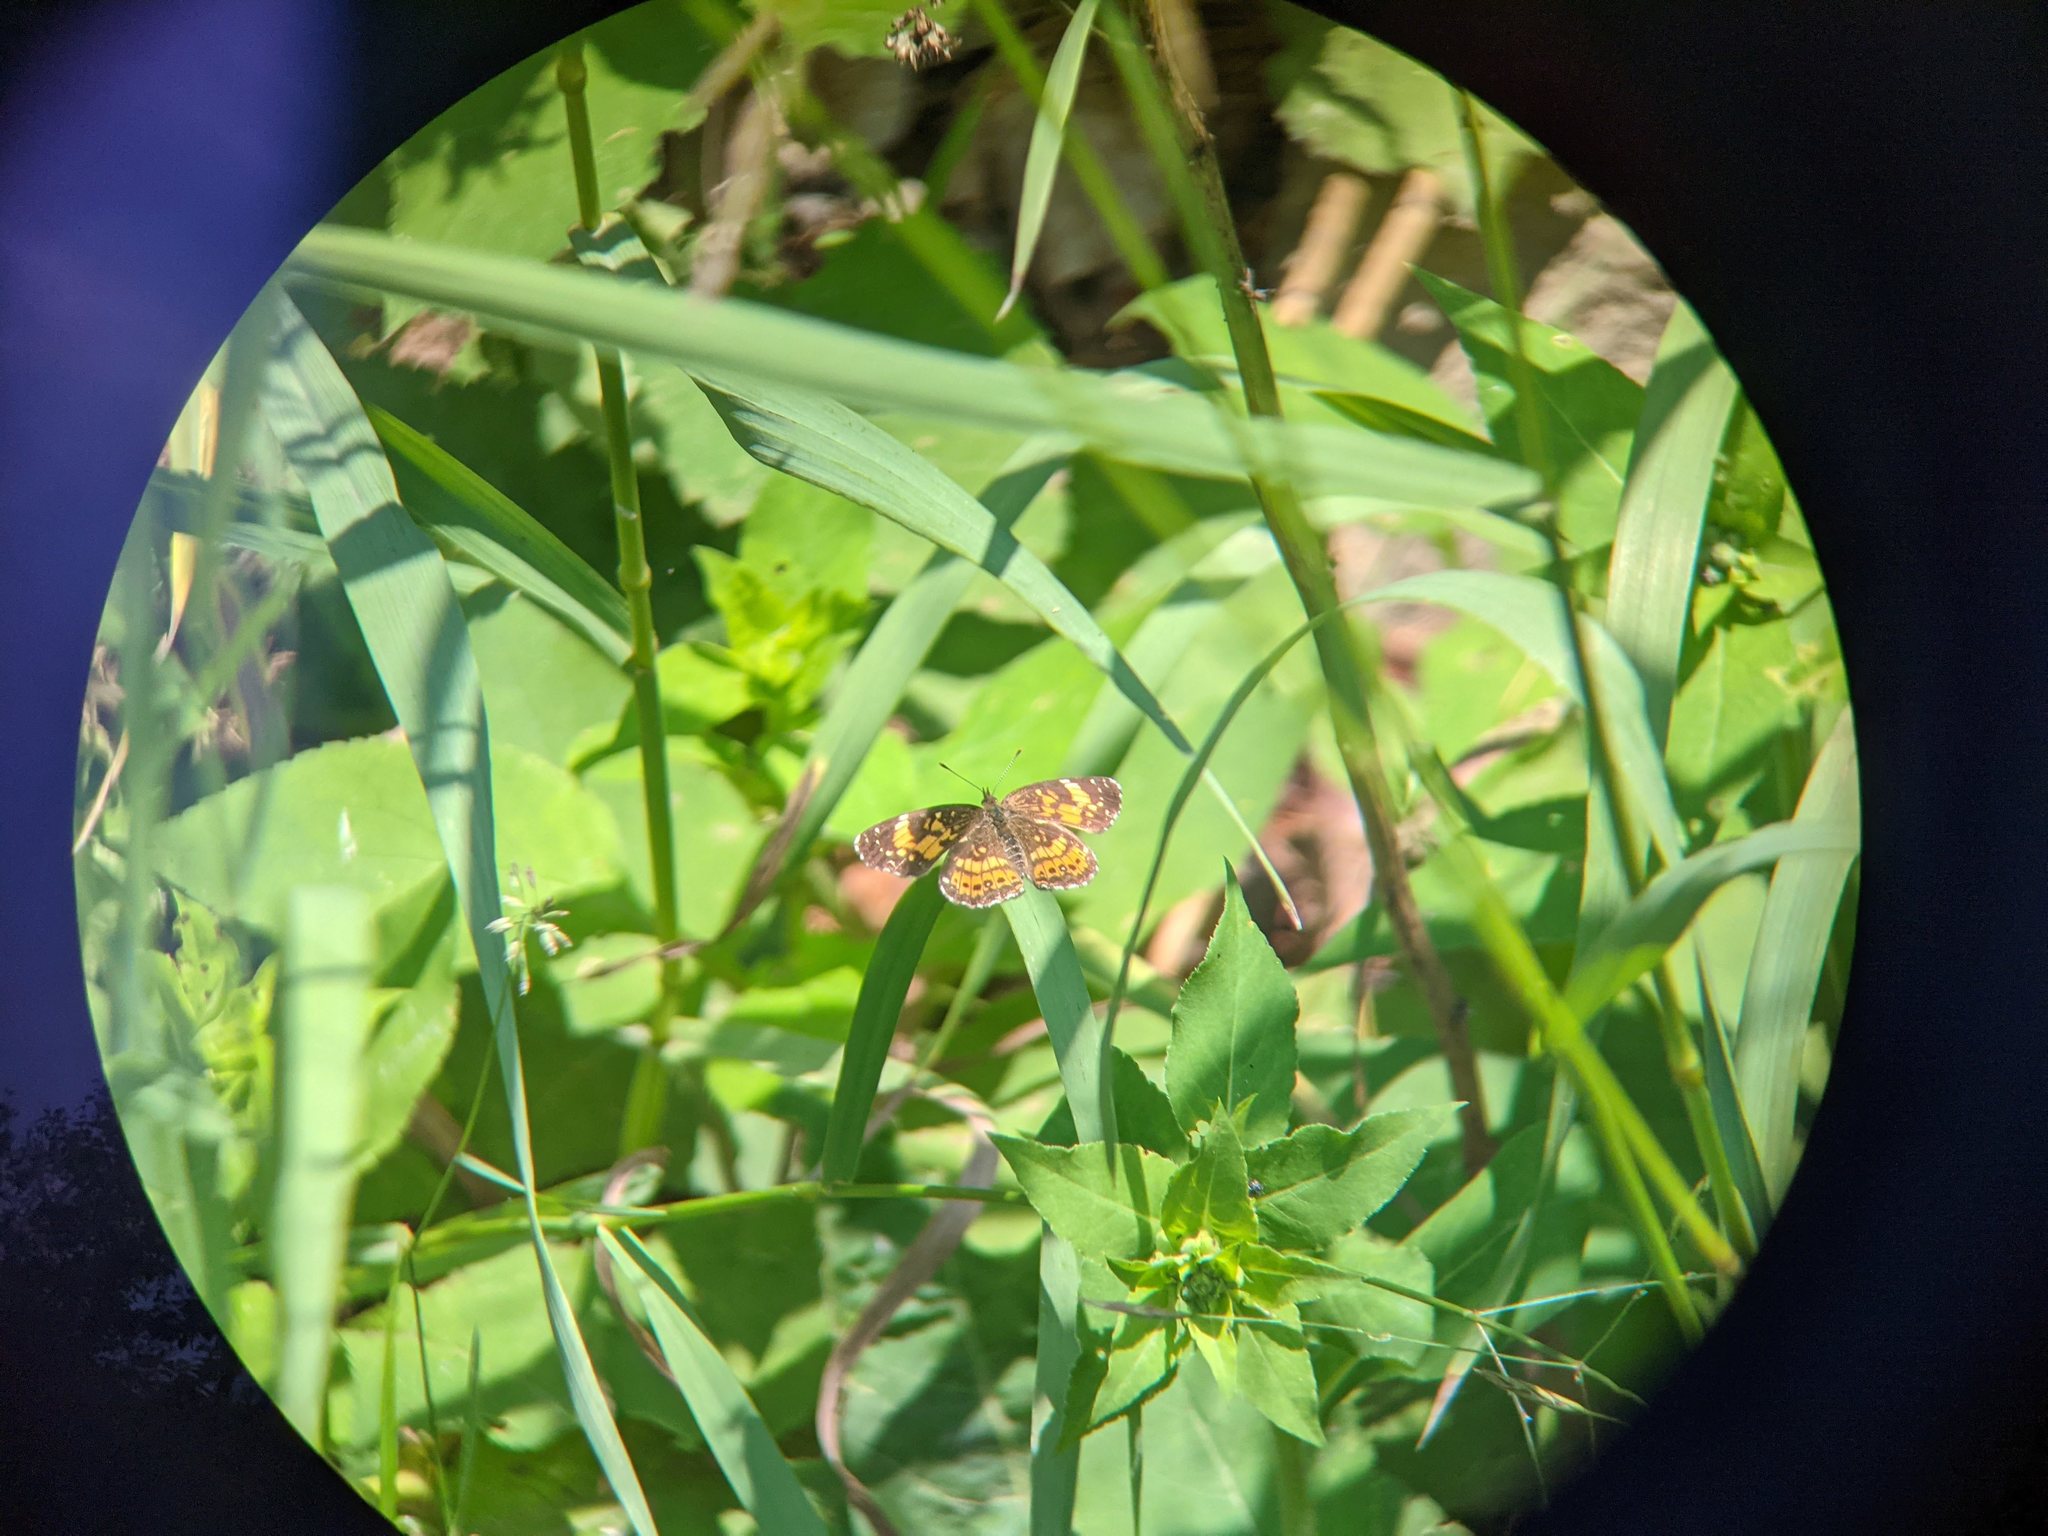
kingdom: Animalia
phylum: Arthropoda
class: Insecta
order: Lepidoptera
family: Nymphalidae
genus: Chlosyne
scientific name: Chlosyne nycteis
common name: Silvery checkerspot
